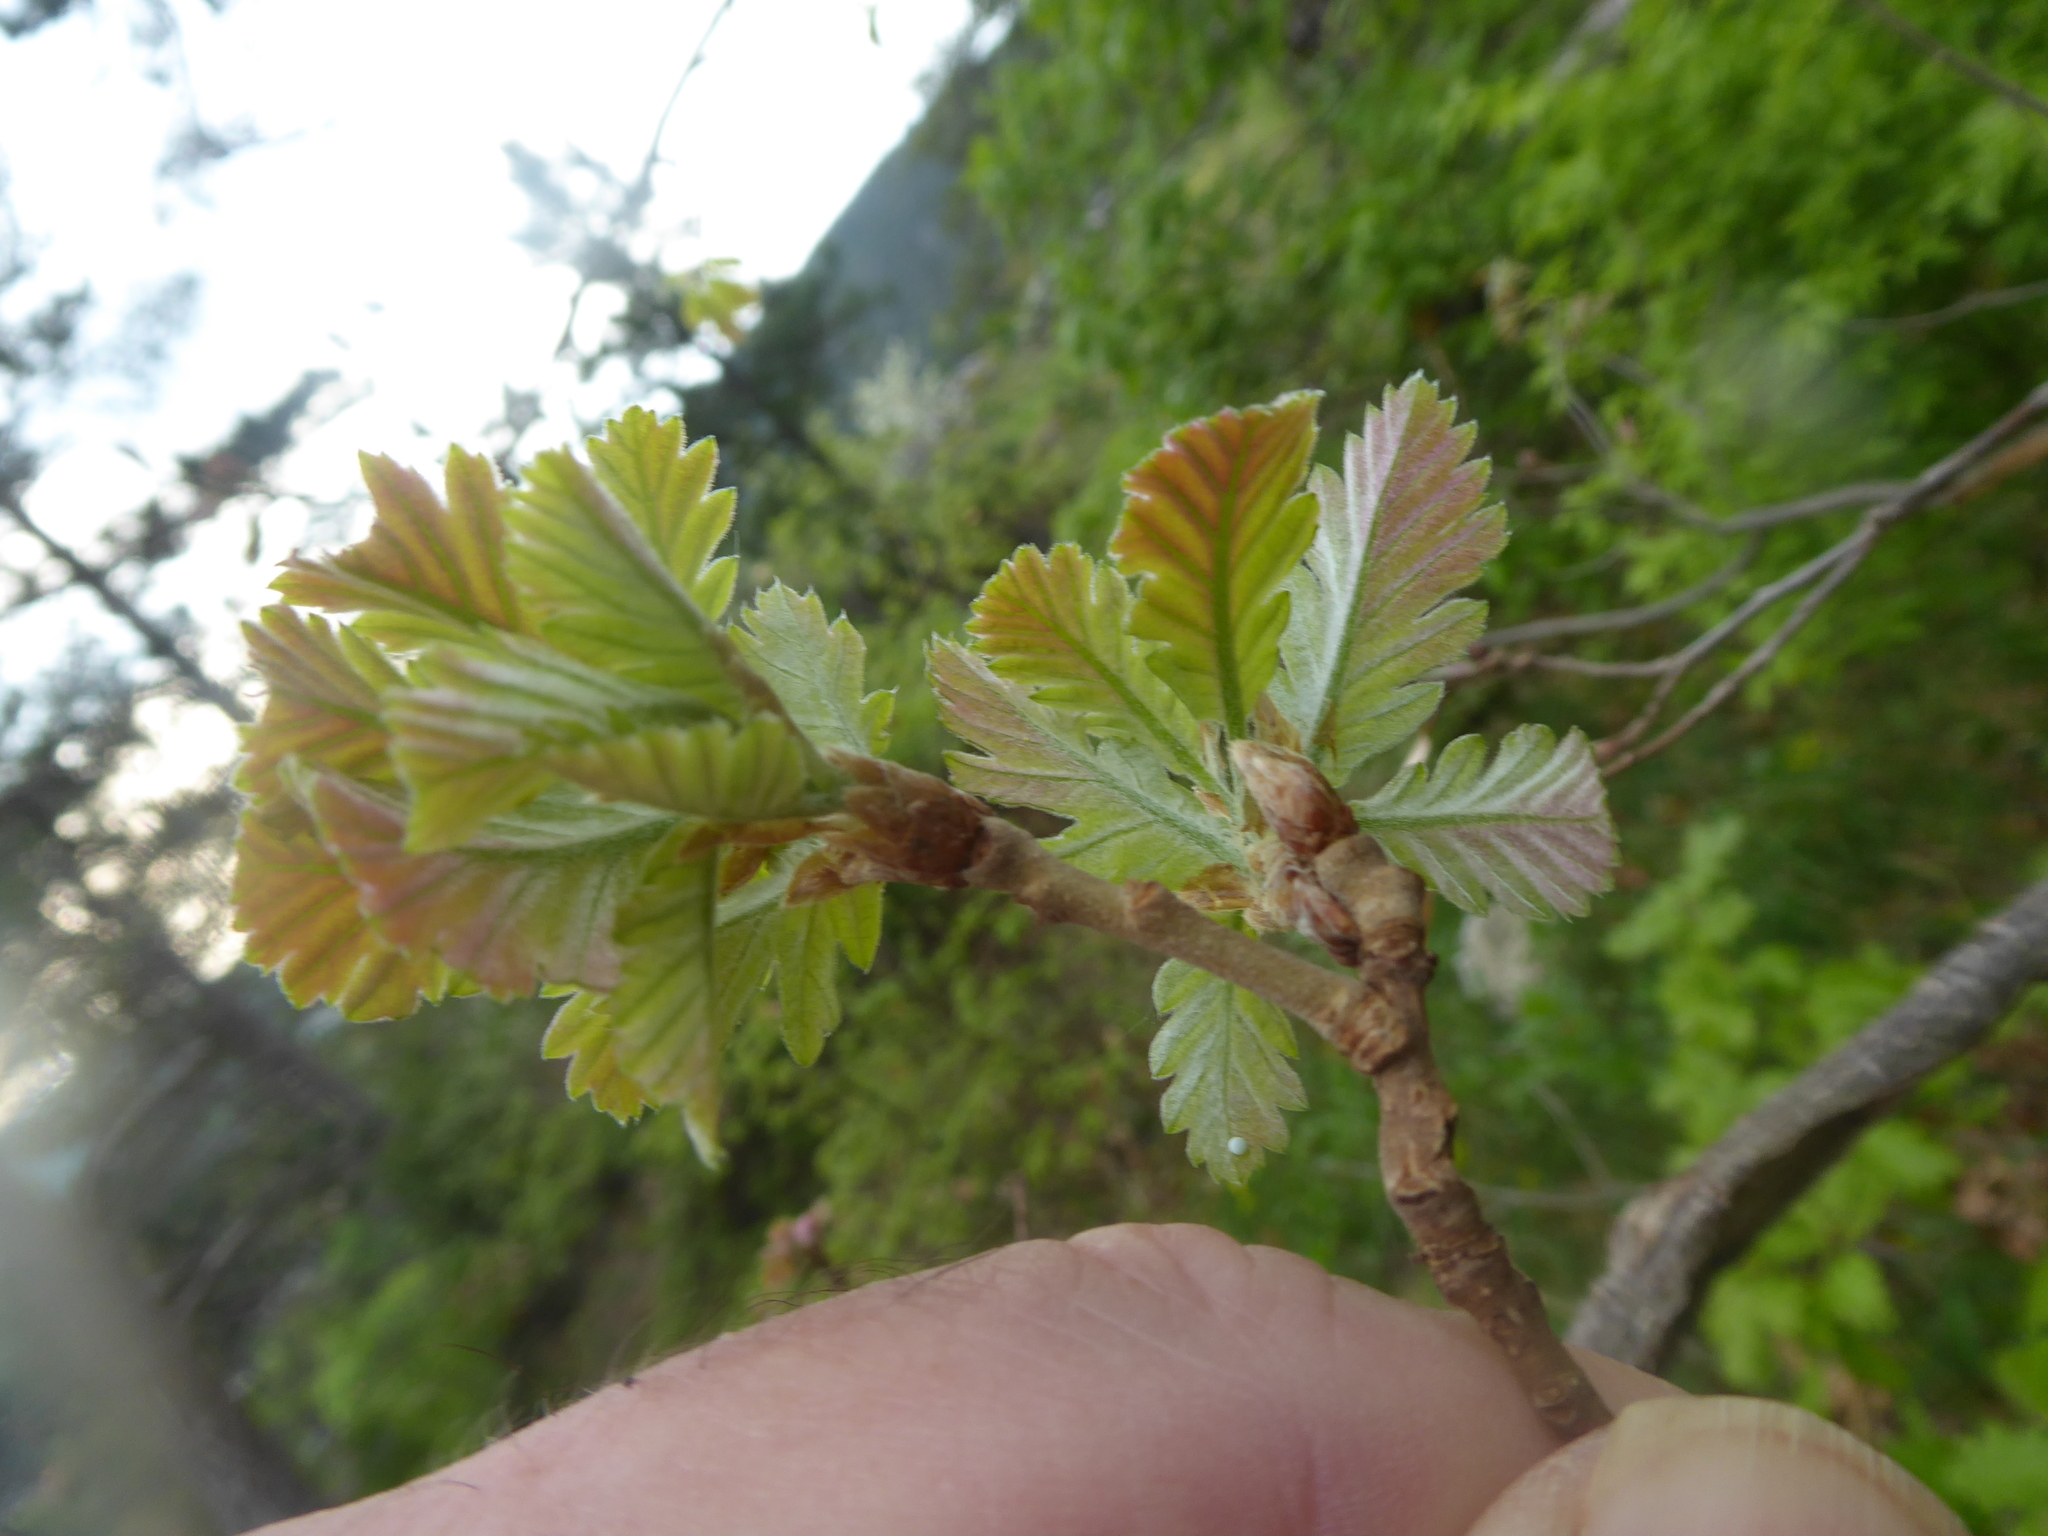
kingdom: Plantae
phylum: Tracheophyta
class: Magnoliopsida
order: Fagales
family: Fagaceae
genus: Quercus
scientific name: Quercus pubescens
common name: Downy oak
